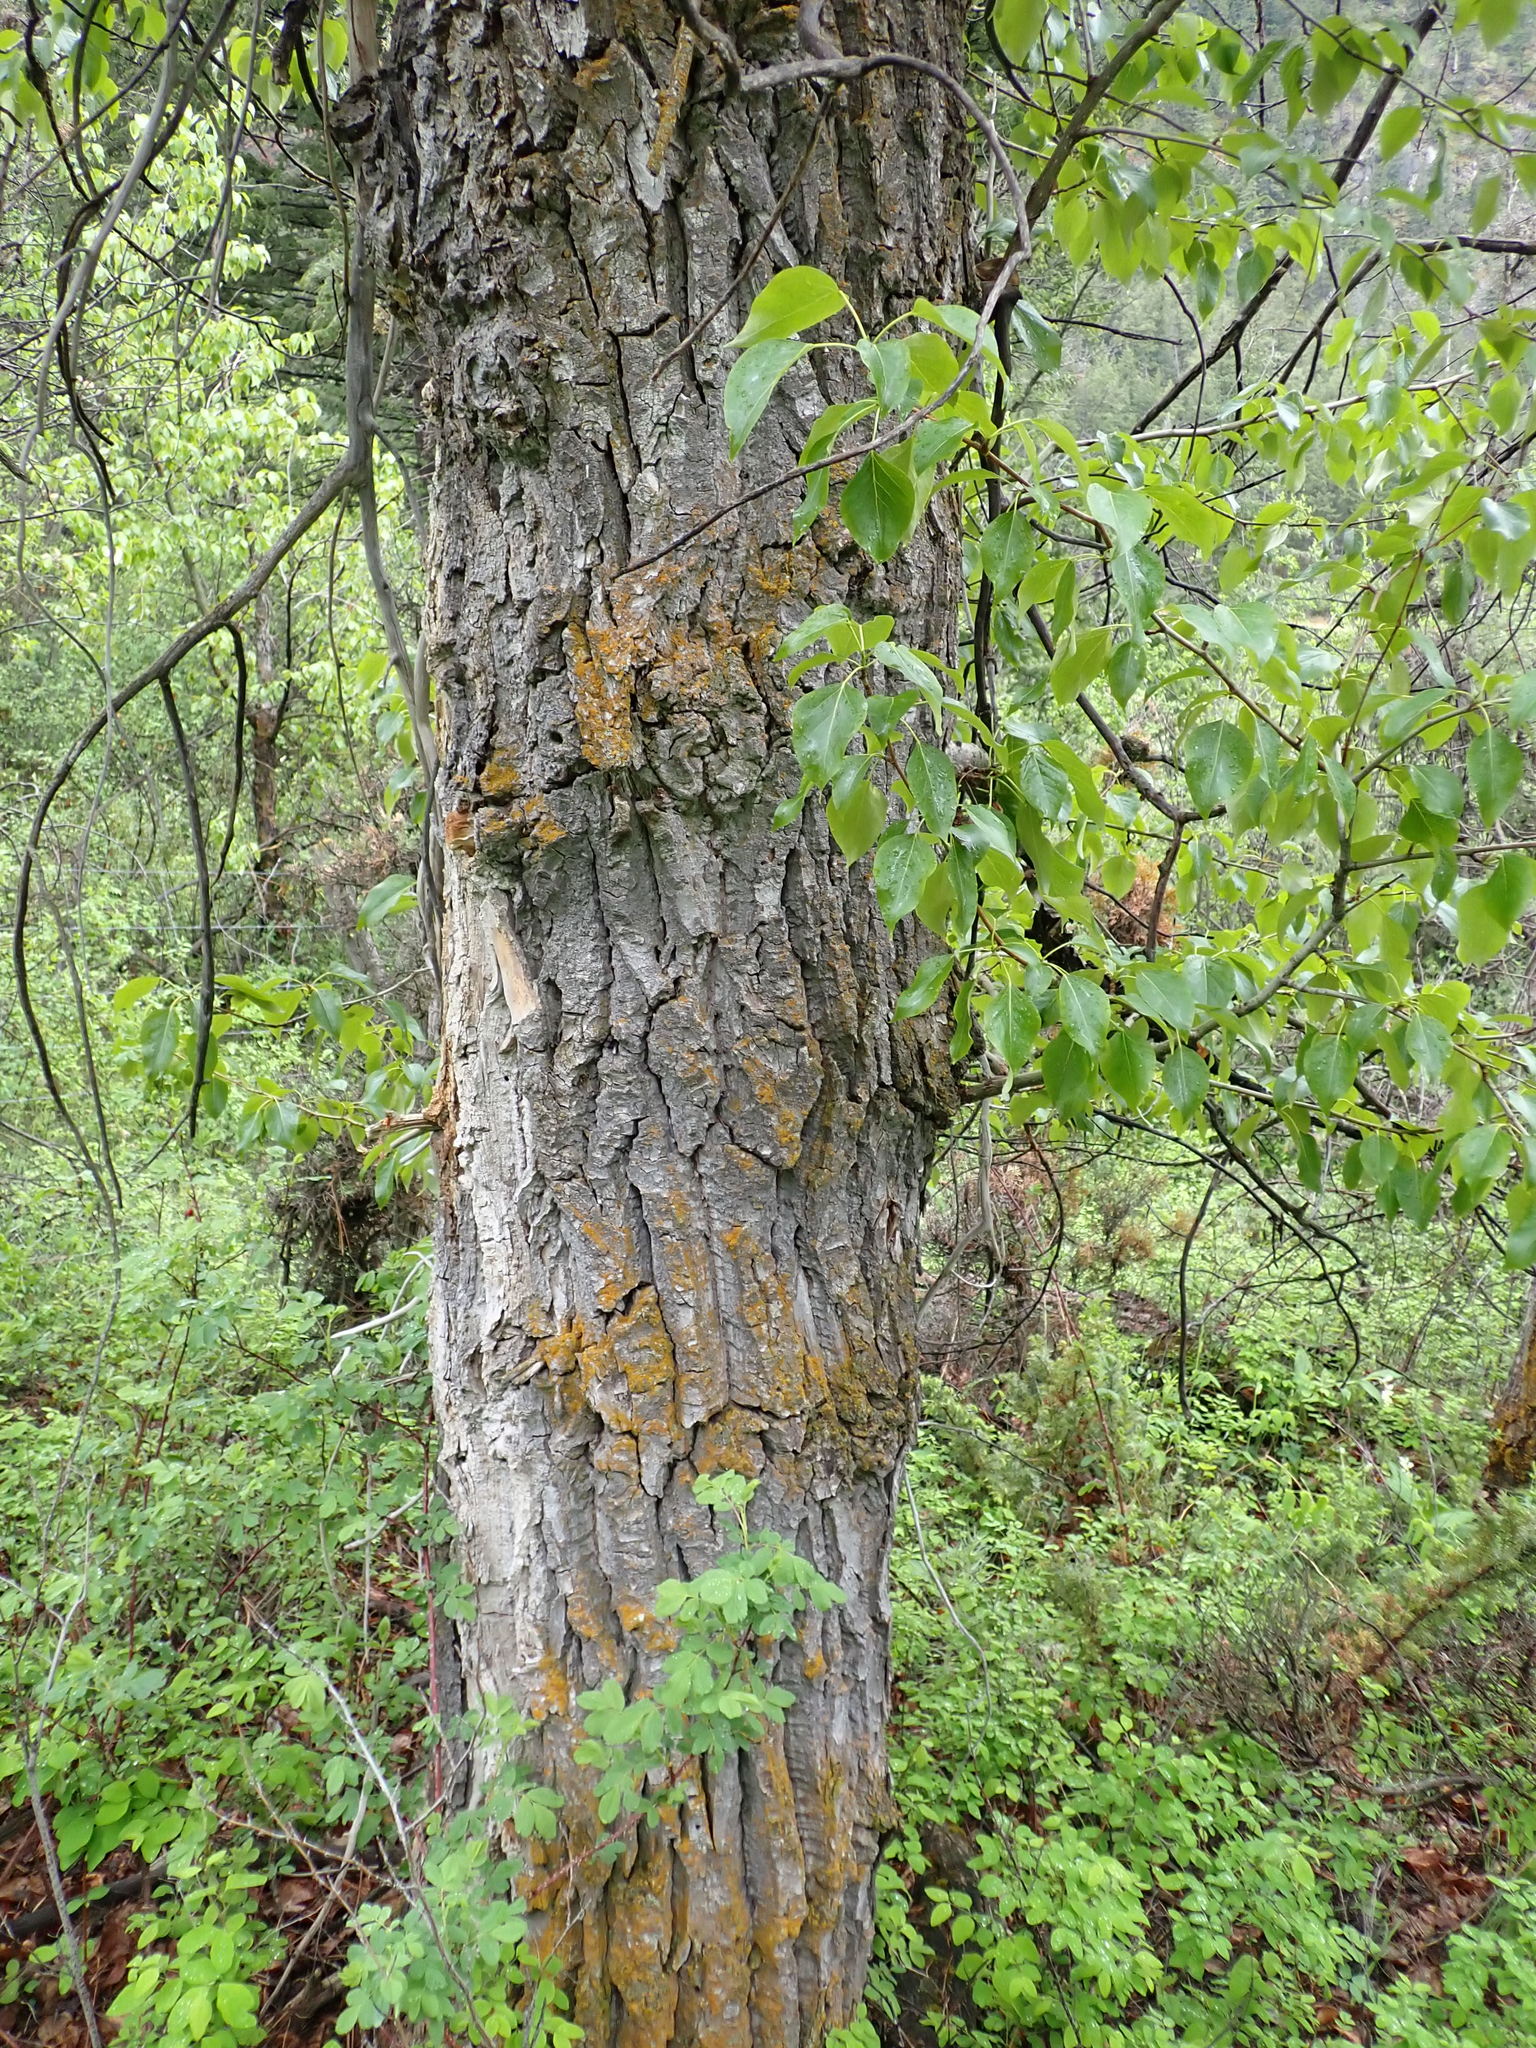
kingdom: Plantae
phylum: Tracheophyta
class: Magnoliopsida
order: Malpighiales
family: Salicaceae
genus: Populus
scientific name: Populus trichocarpa
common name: Black cottonwood
